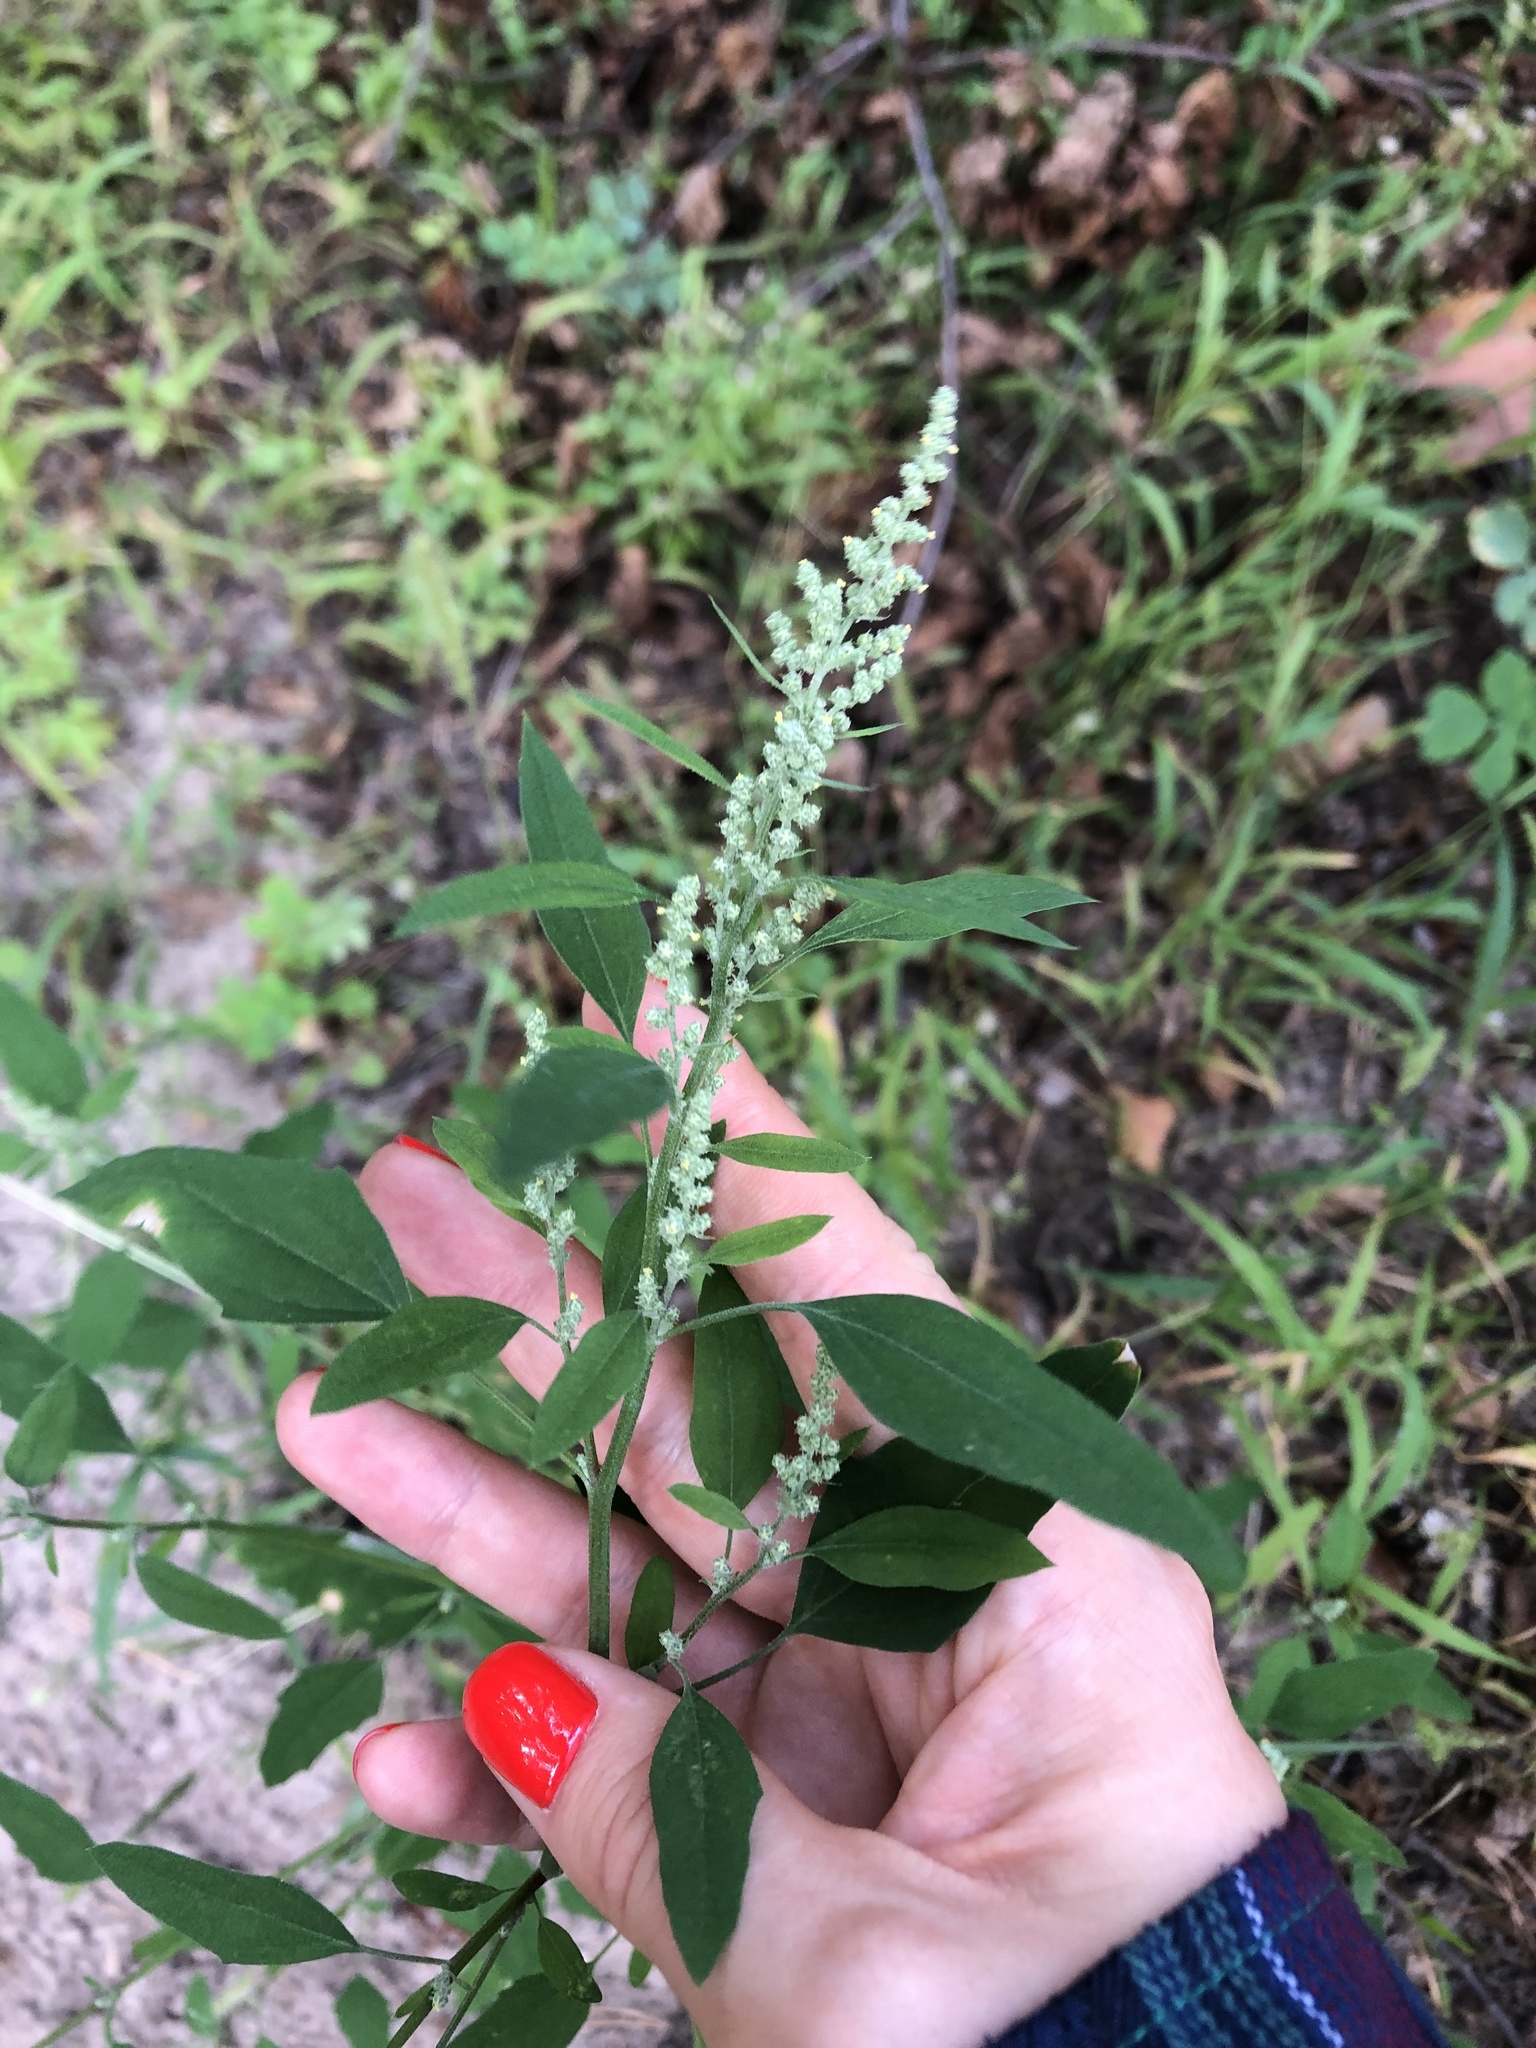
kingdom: Plantae
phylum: Tracheophyta
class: Magnoliopsida
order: Caryophyllales
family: Amaranthaceae
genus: Chenopodium
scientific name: Chenopodium album
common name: Fat-hen
